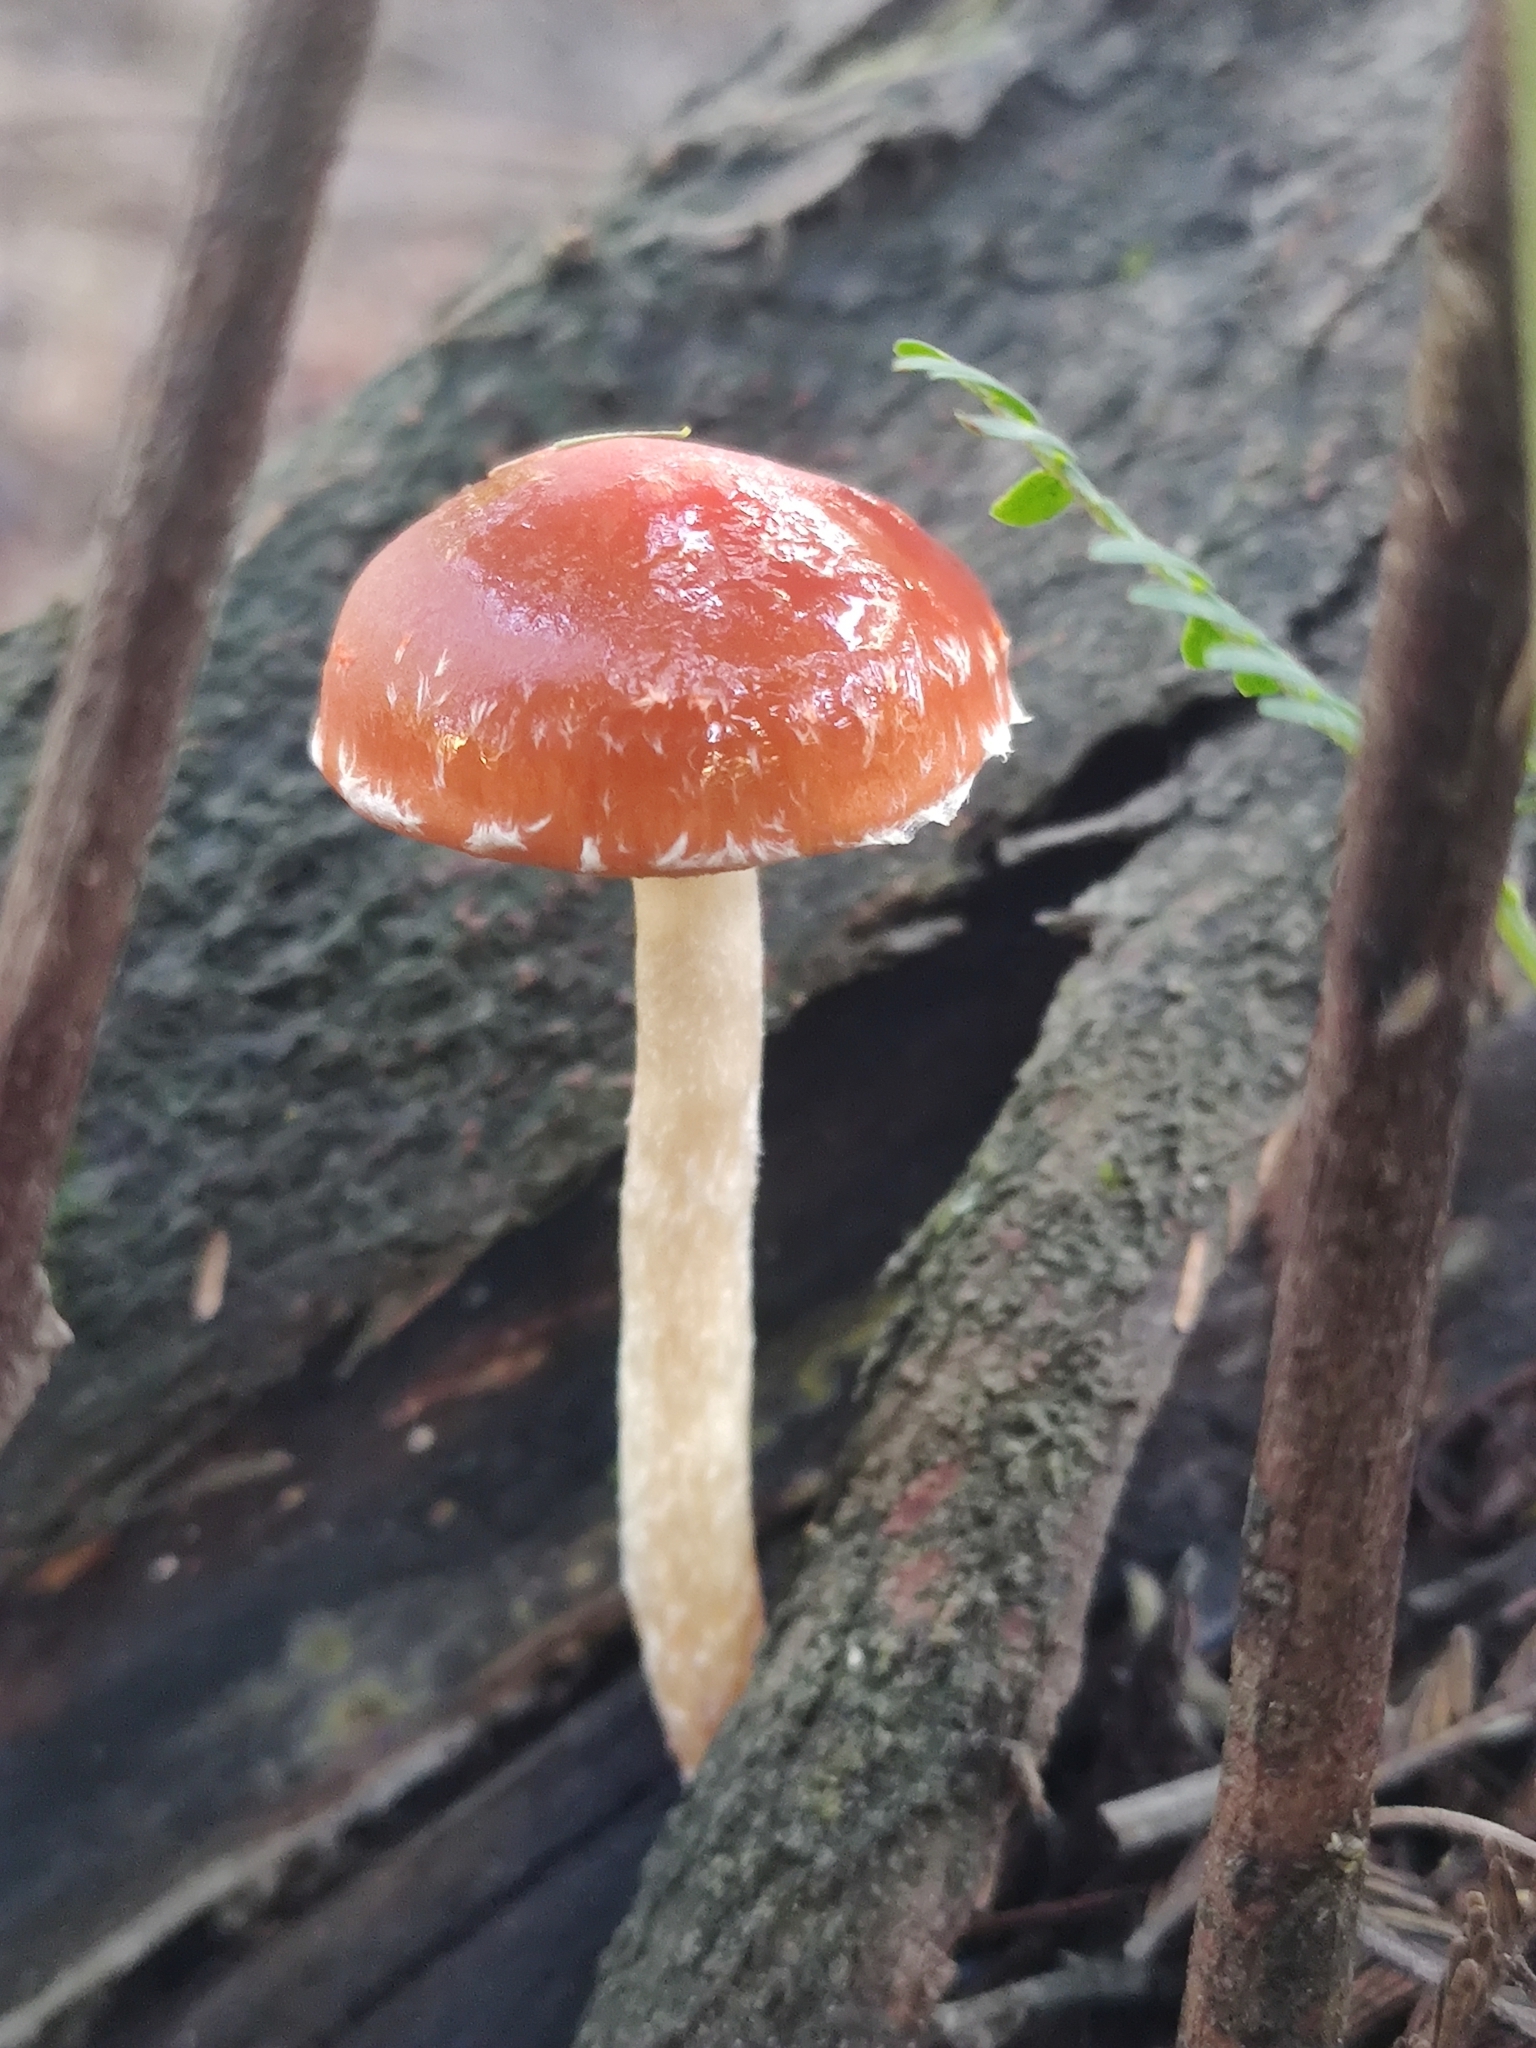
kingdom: Fungi
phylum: Basidiomycota
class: Agaricomycetes
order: Agaricales
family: Strophariaceae
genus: Leratiomyces
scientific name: Leratiomyces ceres
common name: Redlead roundhead
